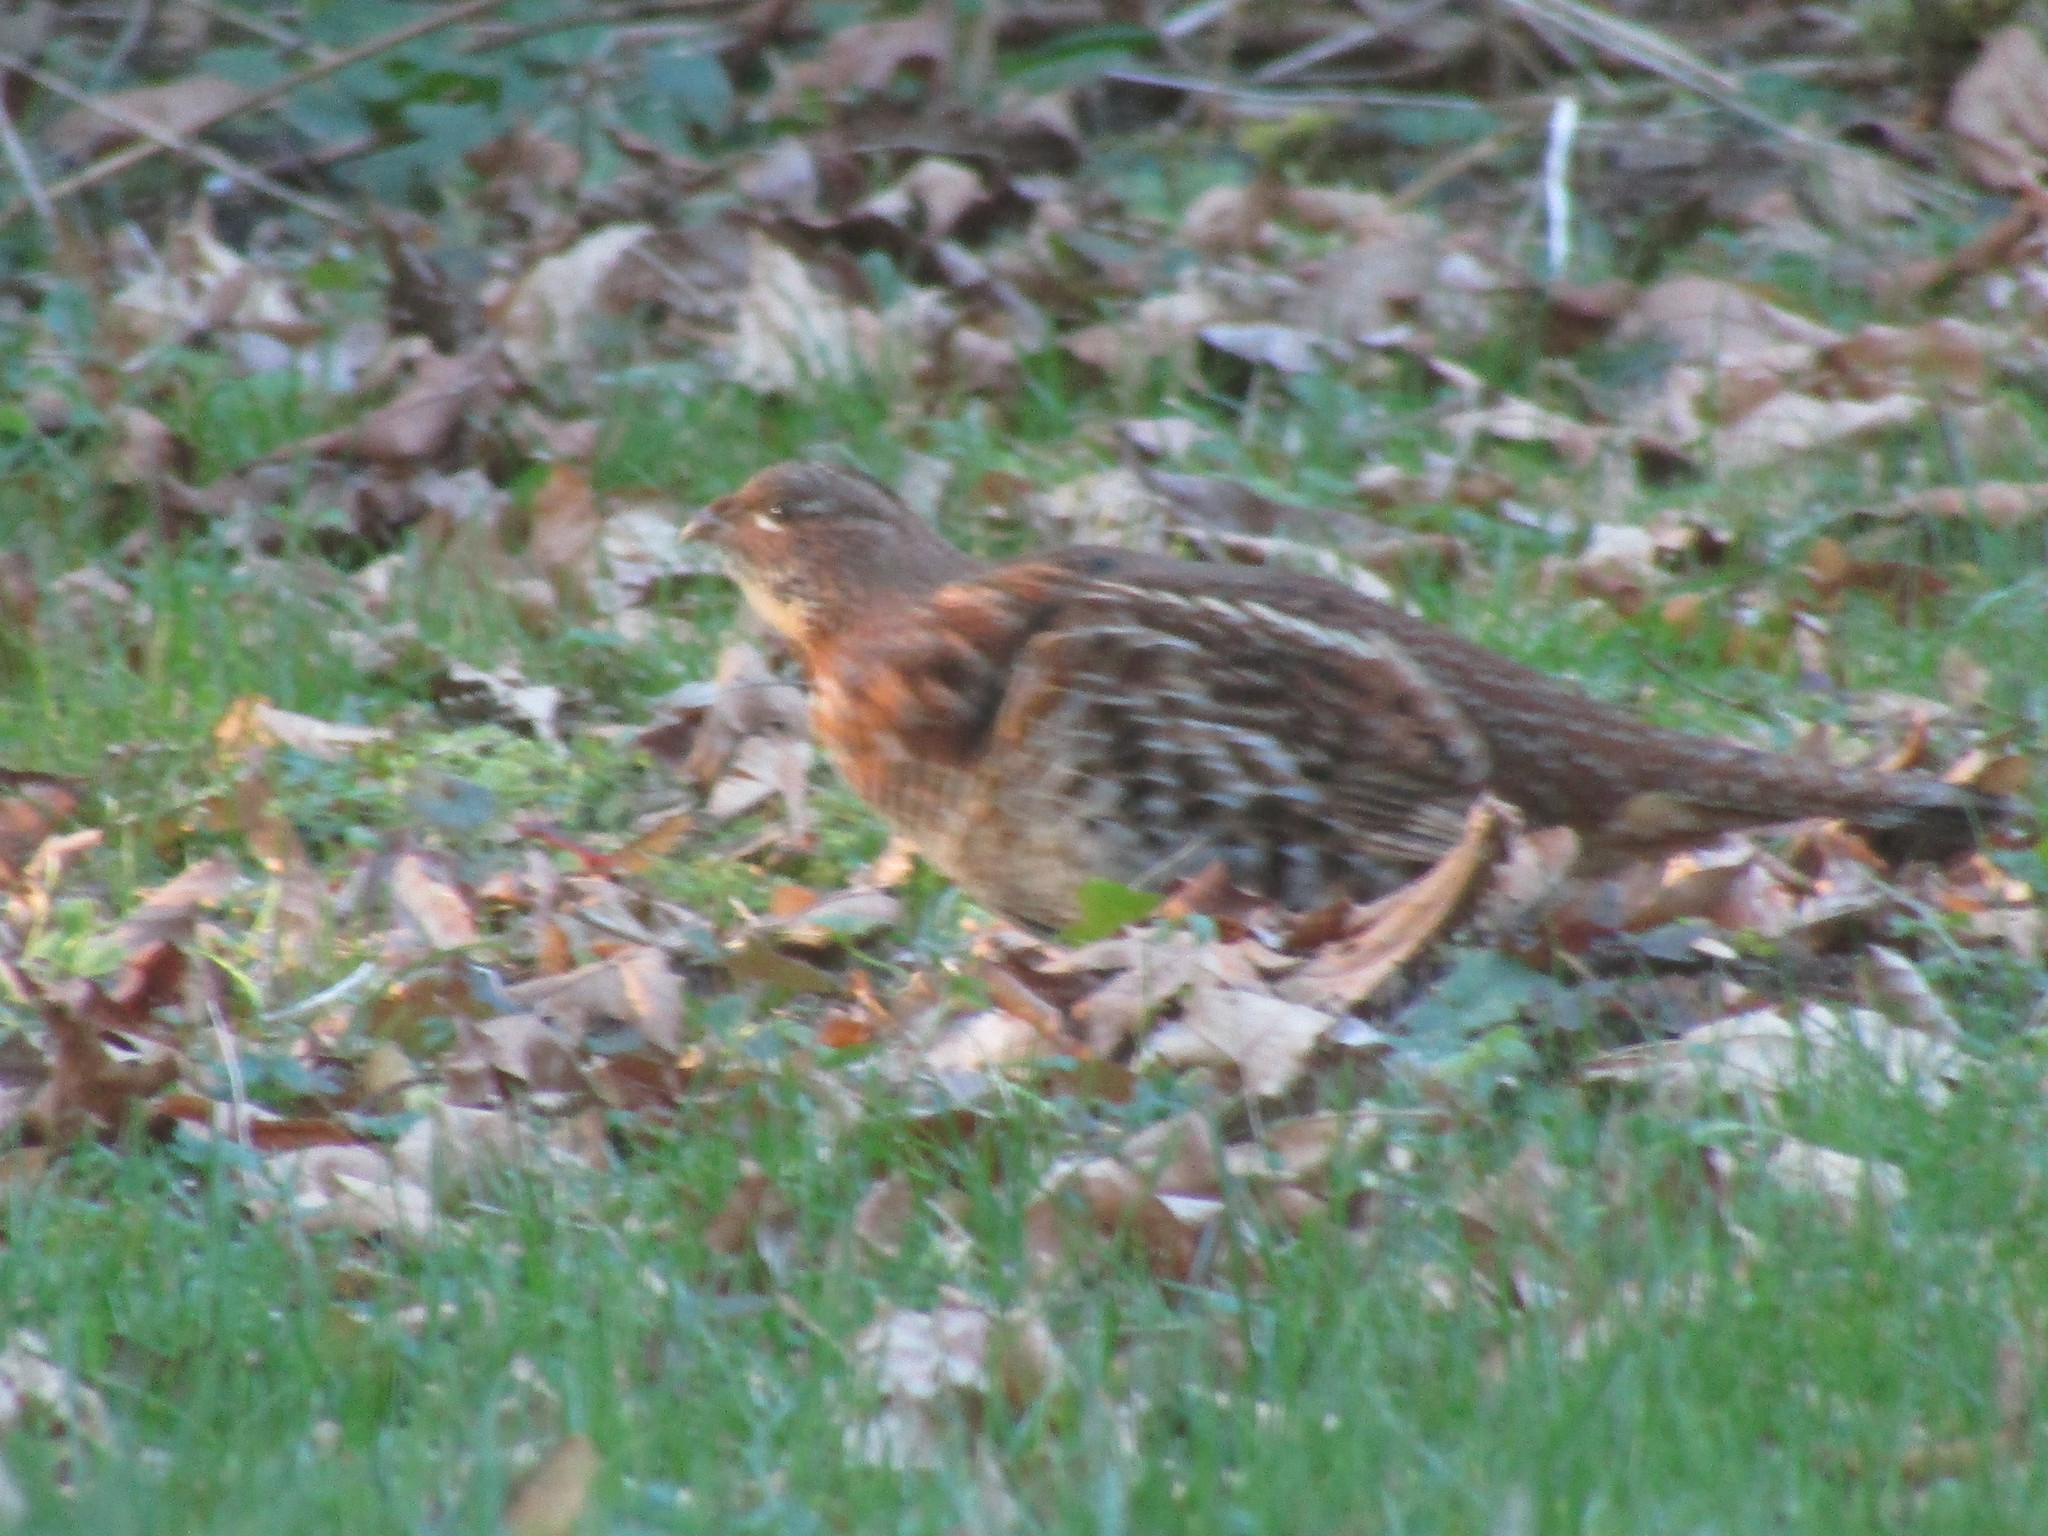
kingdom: Animalia
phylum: Chordata
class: Aves
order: Galliformes
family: Phasianidae
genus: Bonasa
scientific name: Bonasa umbellus
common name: Ruffed grouse
